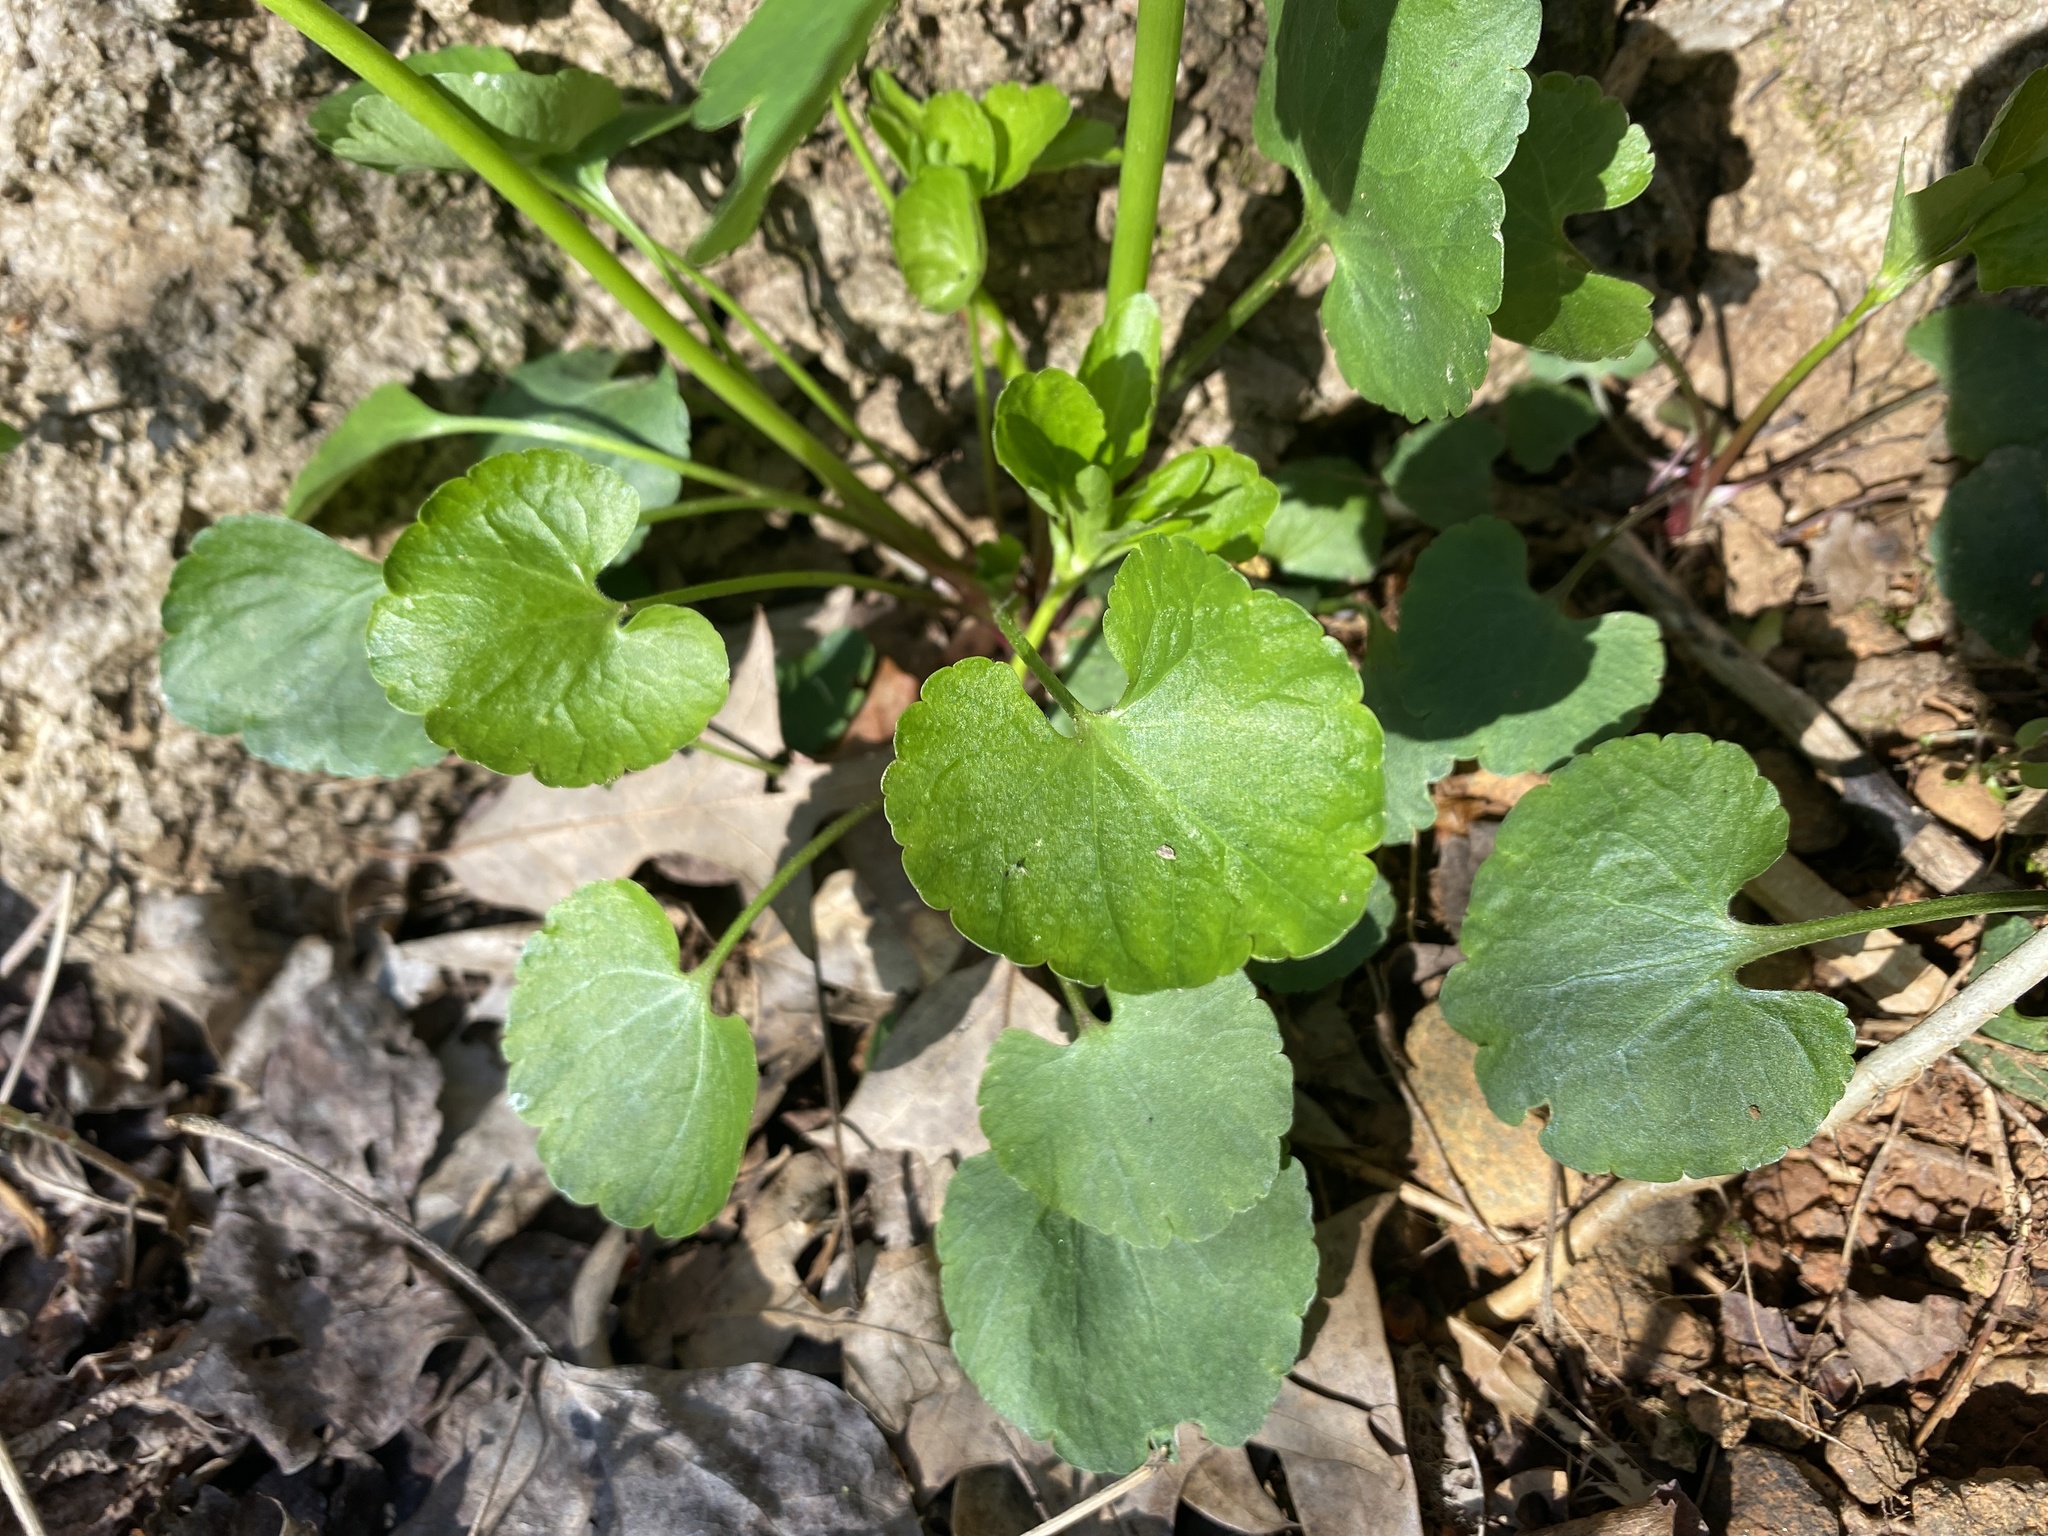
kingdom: Plantae
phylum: Tracheophyta
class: Magnoliopsida
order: Ranunculales
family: Ranunculaceae
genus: Ranunculus
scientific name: Ranunculus abortivus
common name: Early wood buttercup
